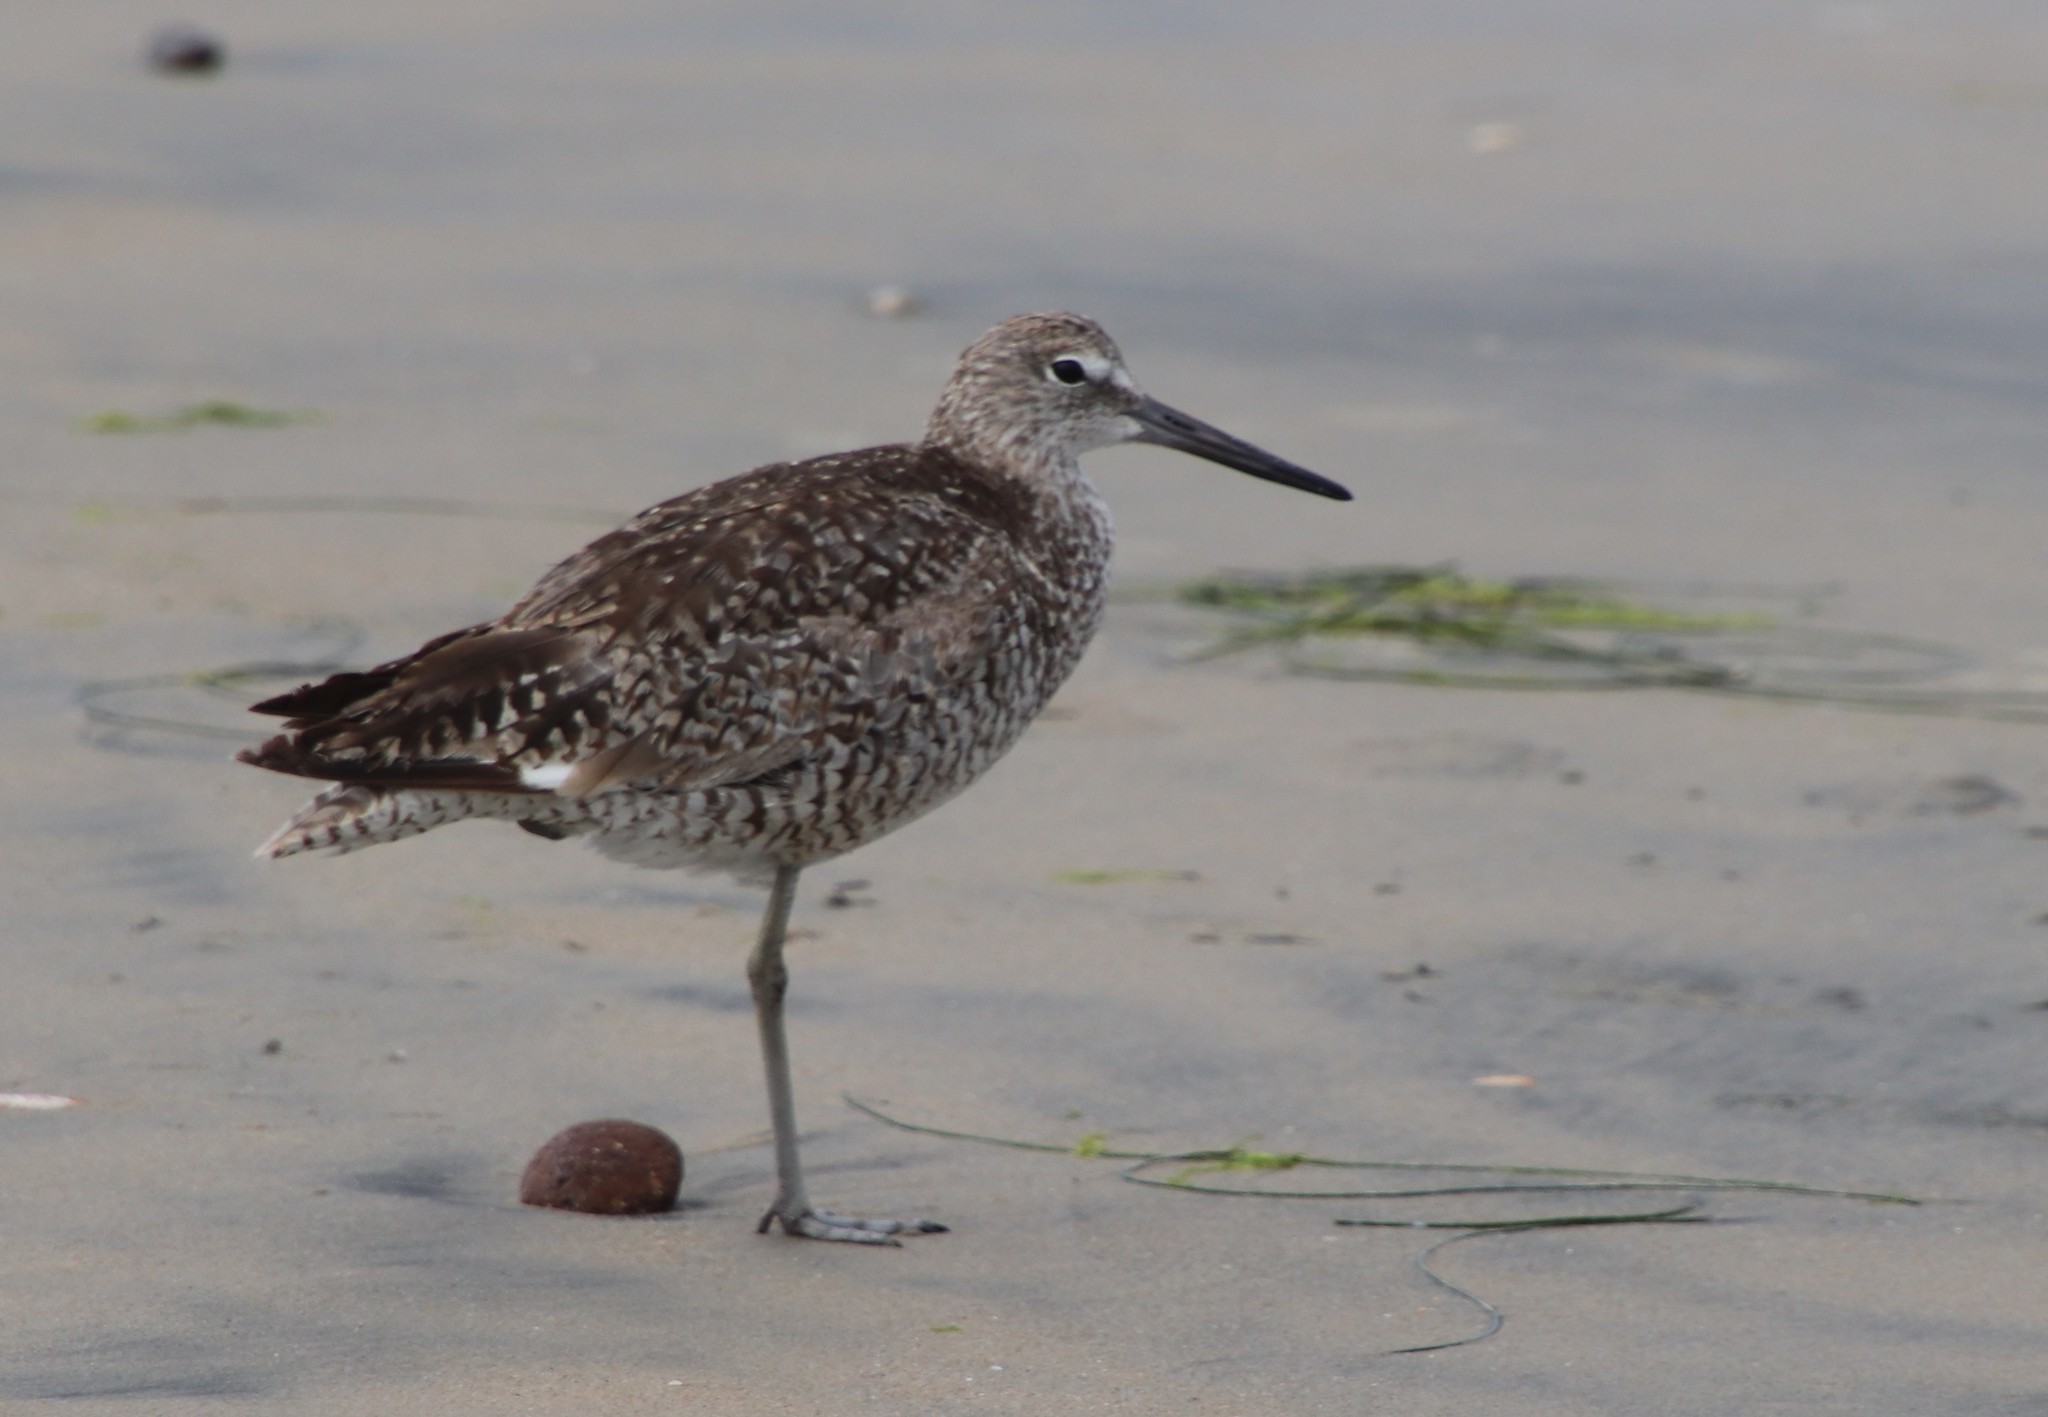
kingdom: Animalia
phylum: Chordata
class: Aves
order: Charadriiformes
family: Scolopacidae
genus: Tringa
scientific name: Tringa semipalmata
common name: Willet
